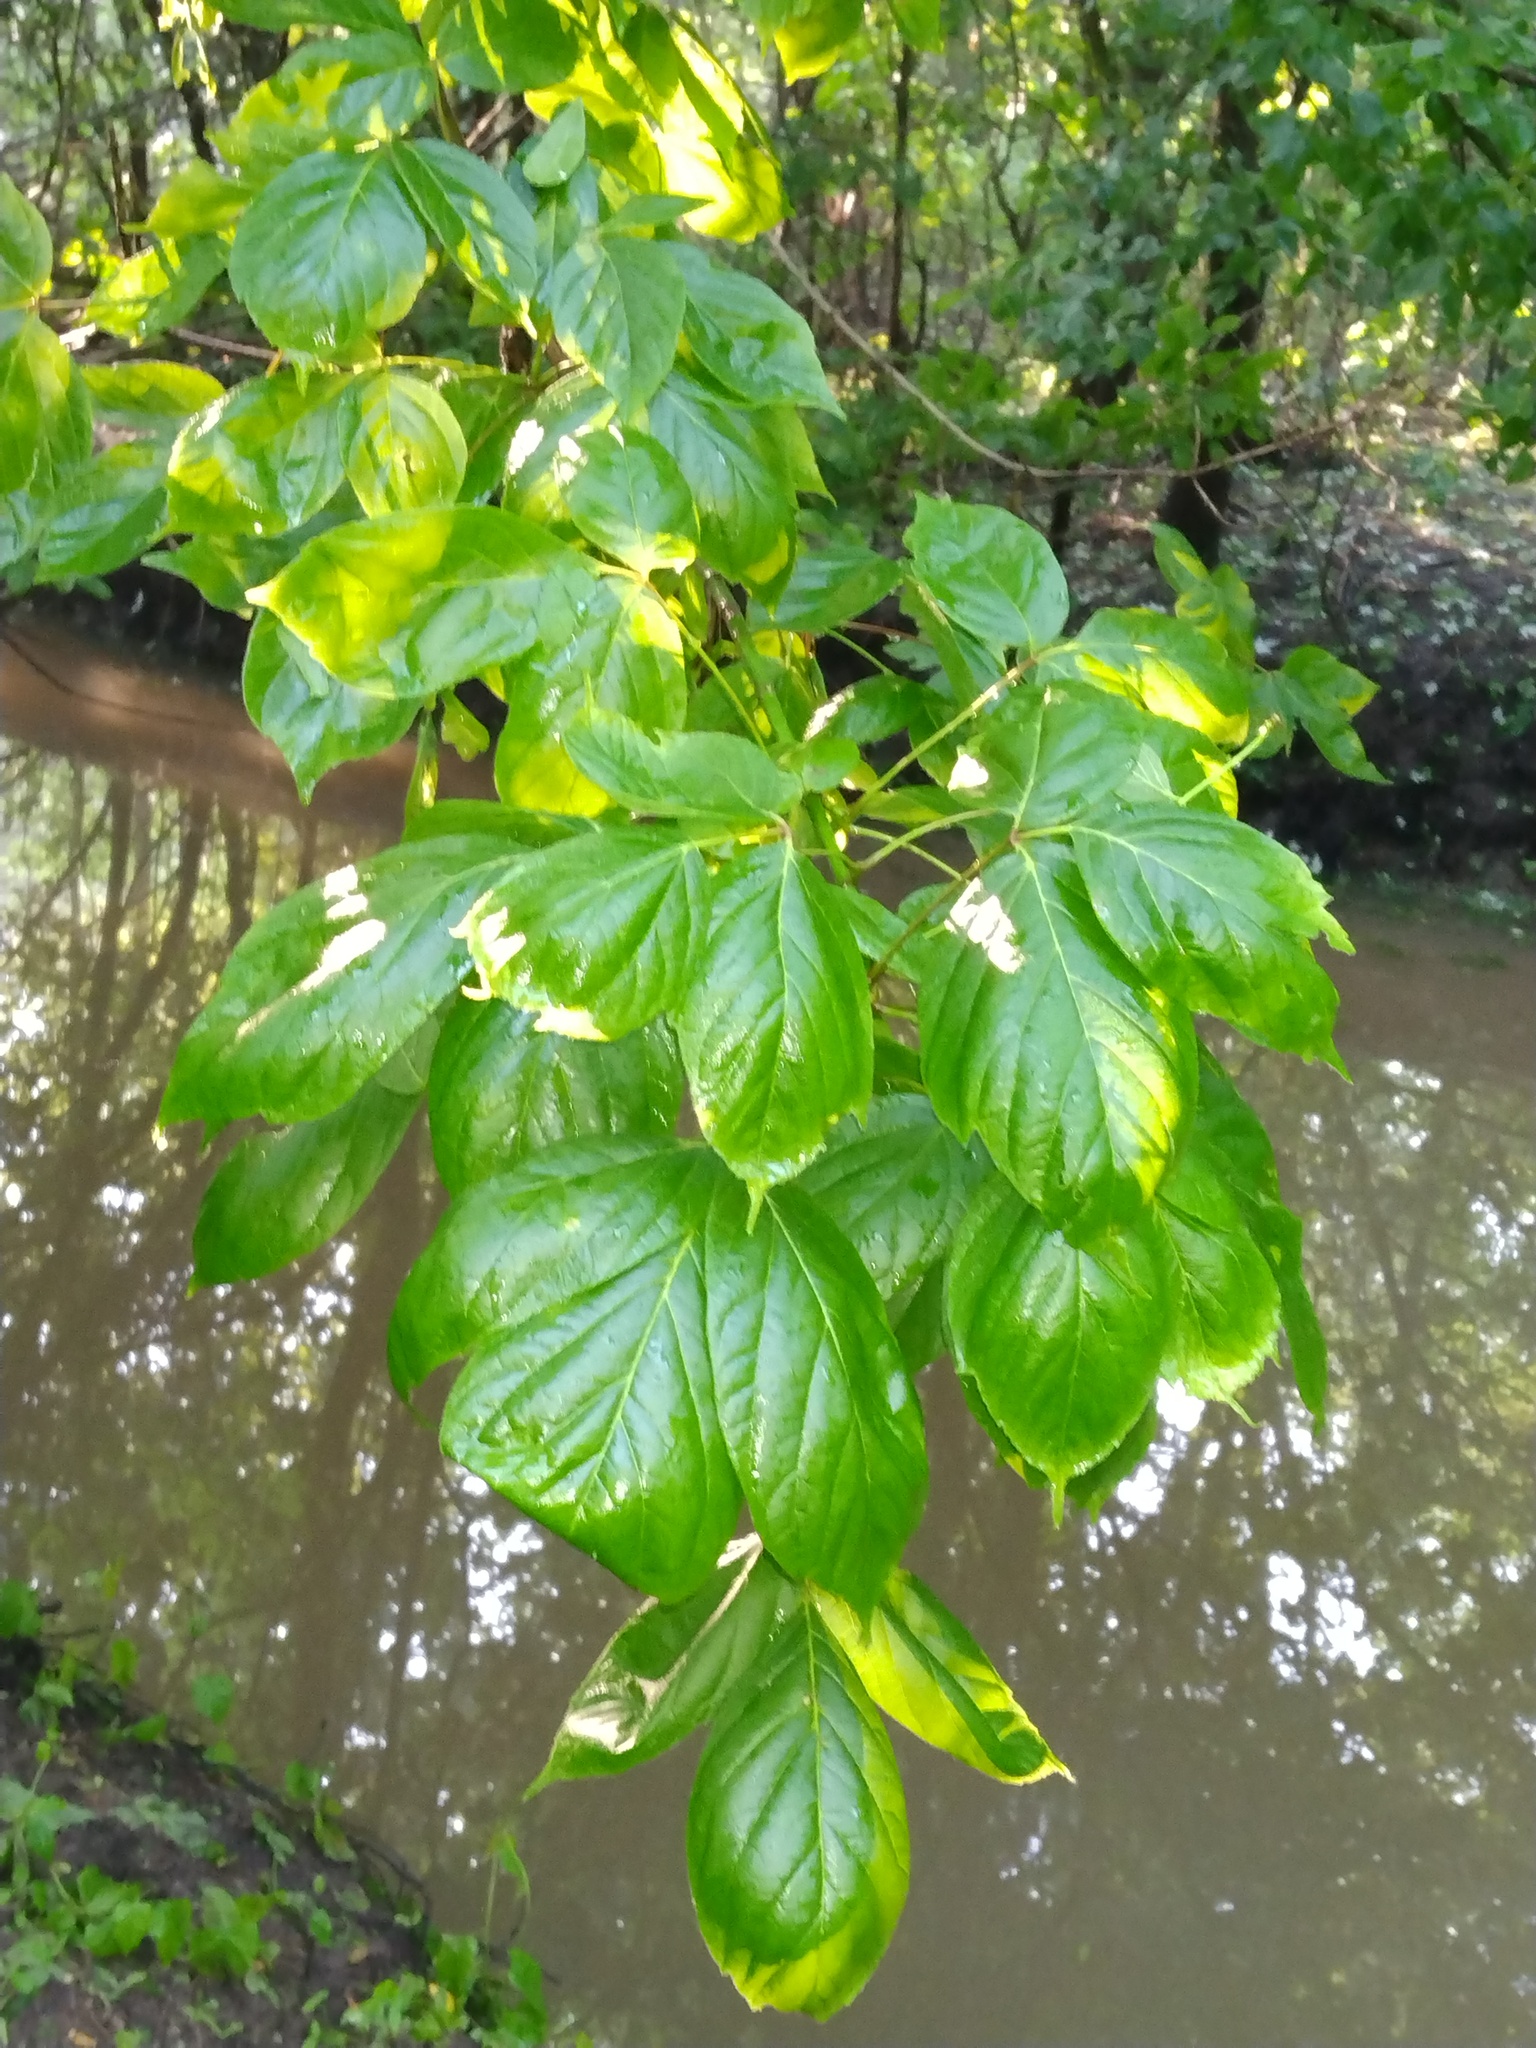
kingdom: Plantae
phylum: Tracheophyta
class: Magnoliopsida
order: Sapindales
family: Sapindaceae
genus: Acer
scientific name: Acer negundo
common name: Ashleaf maple
